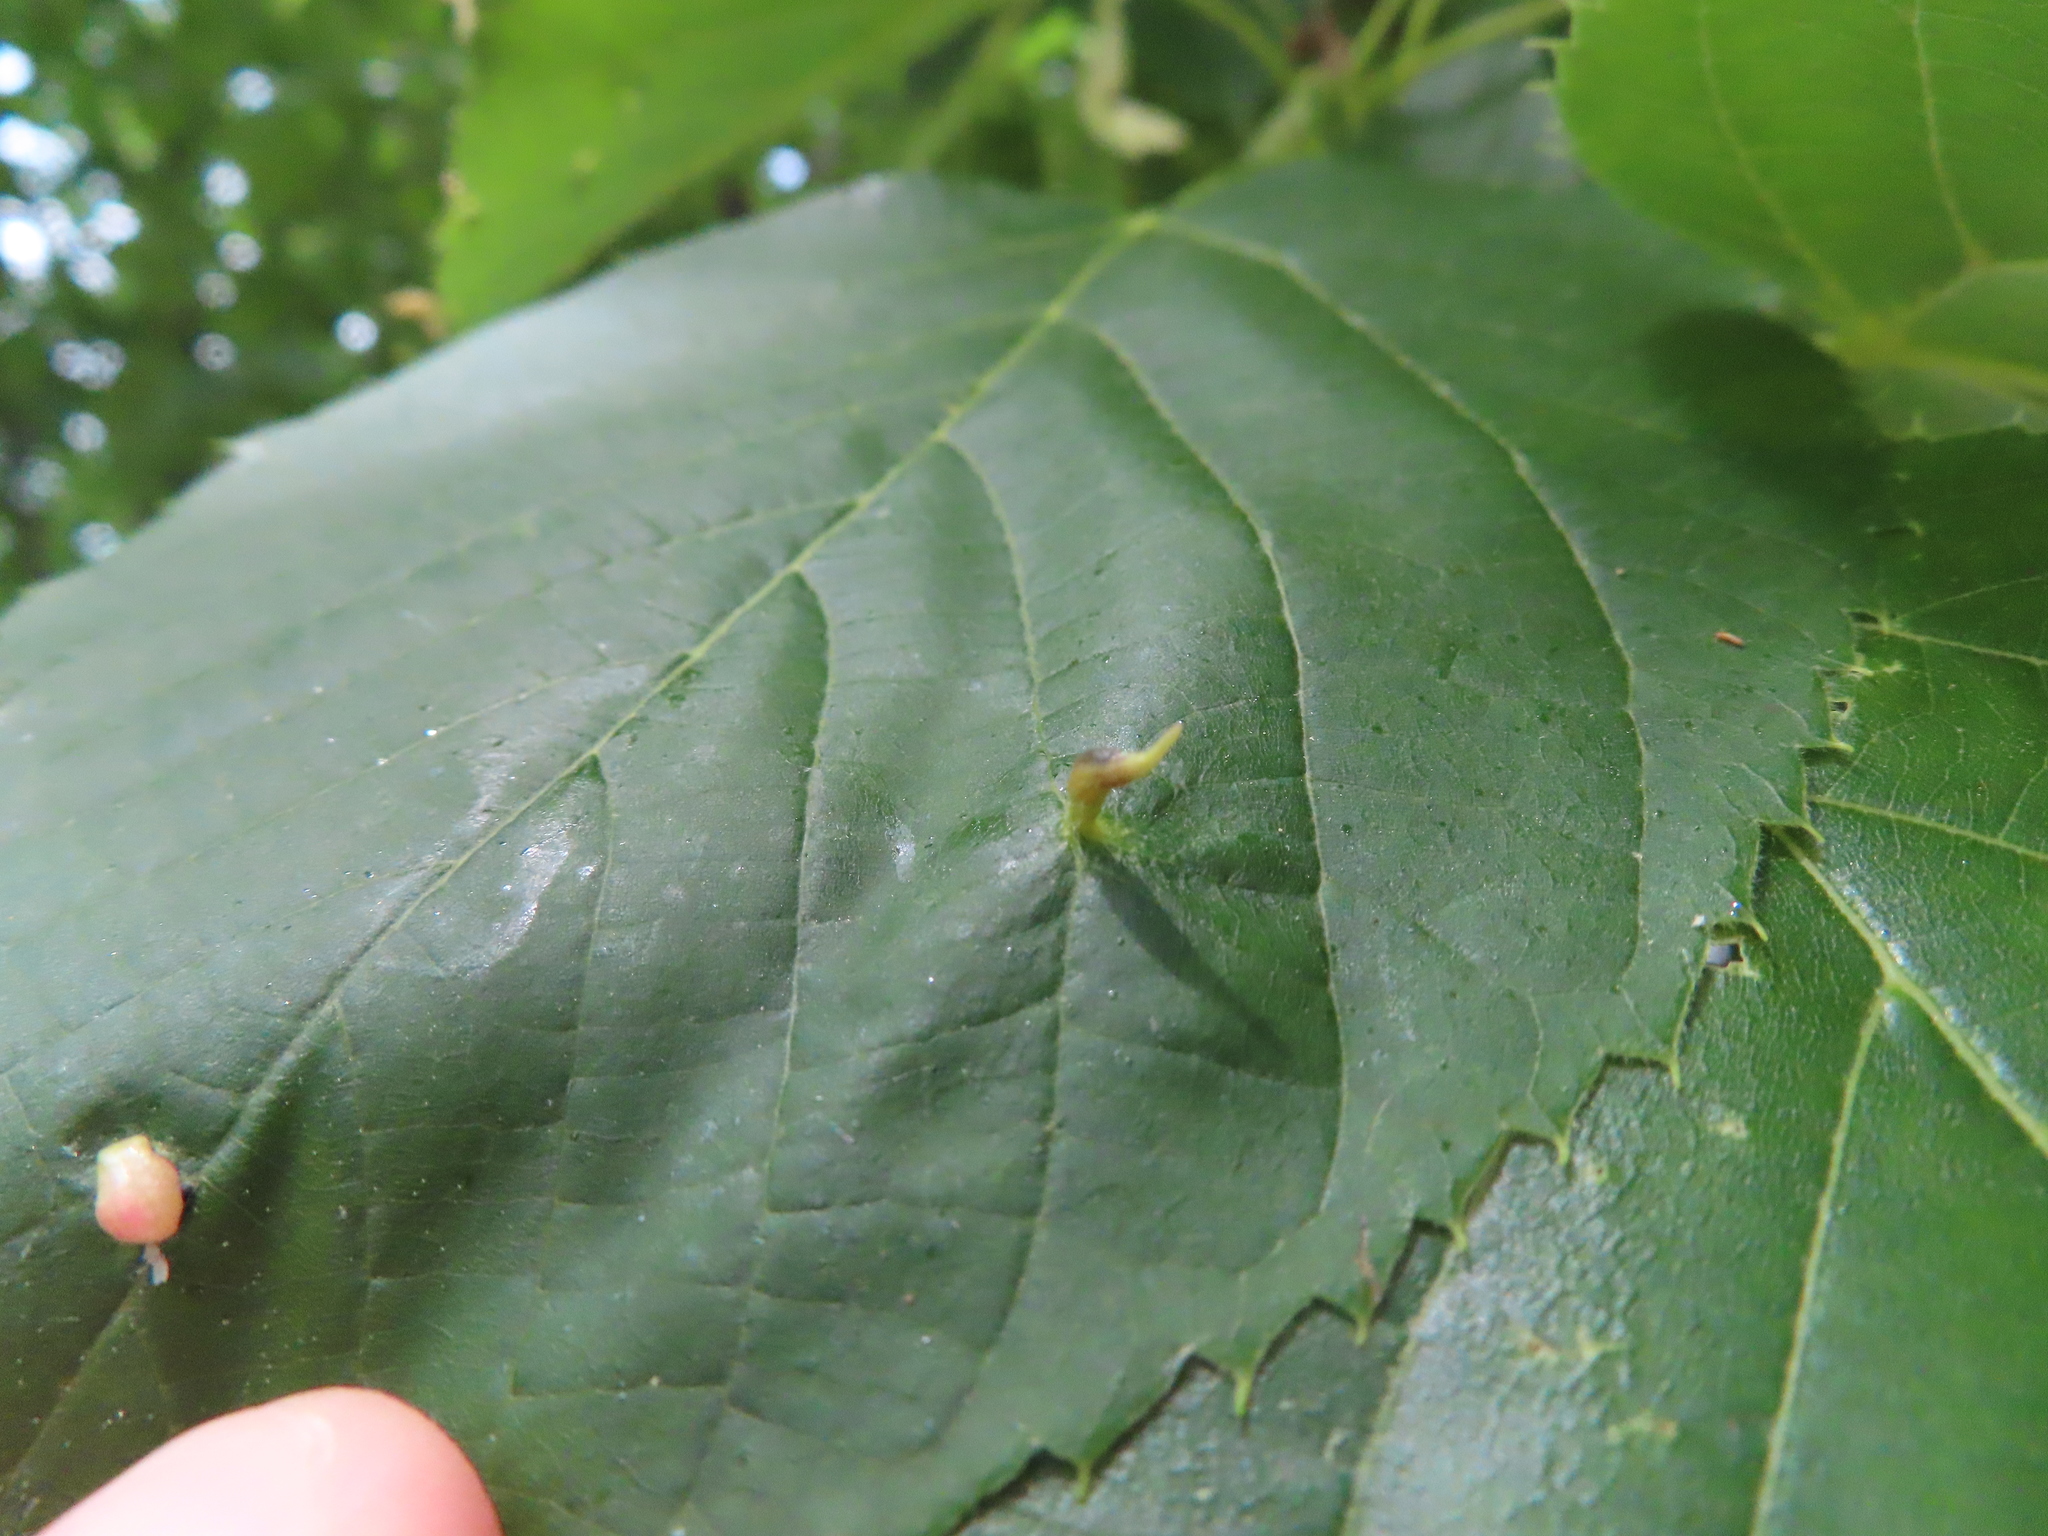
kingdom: Animalia
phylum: Arthropoda
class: Arachnida
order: Trombidiformes
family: Eriophyidae
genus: Eriophyes
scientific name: Eriophyes tiliae
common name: Red nail gall mite
